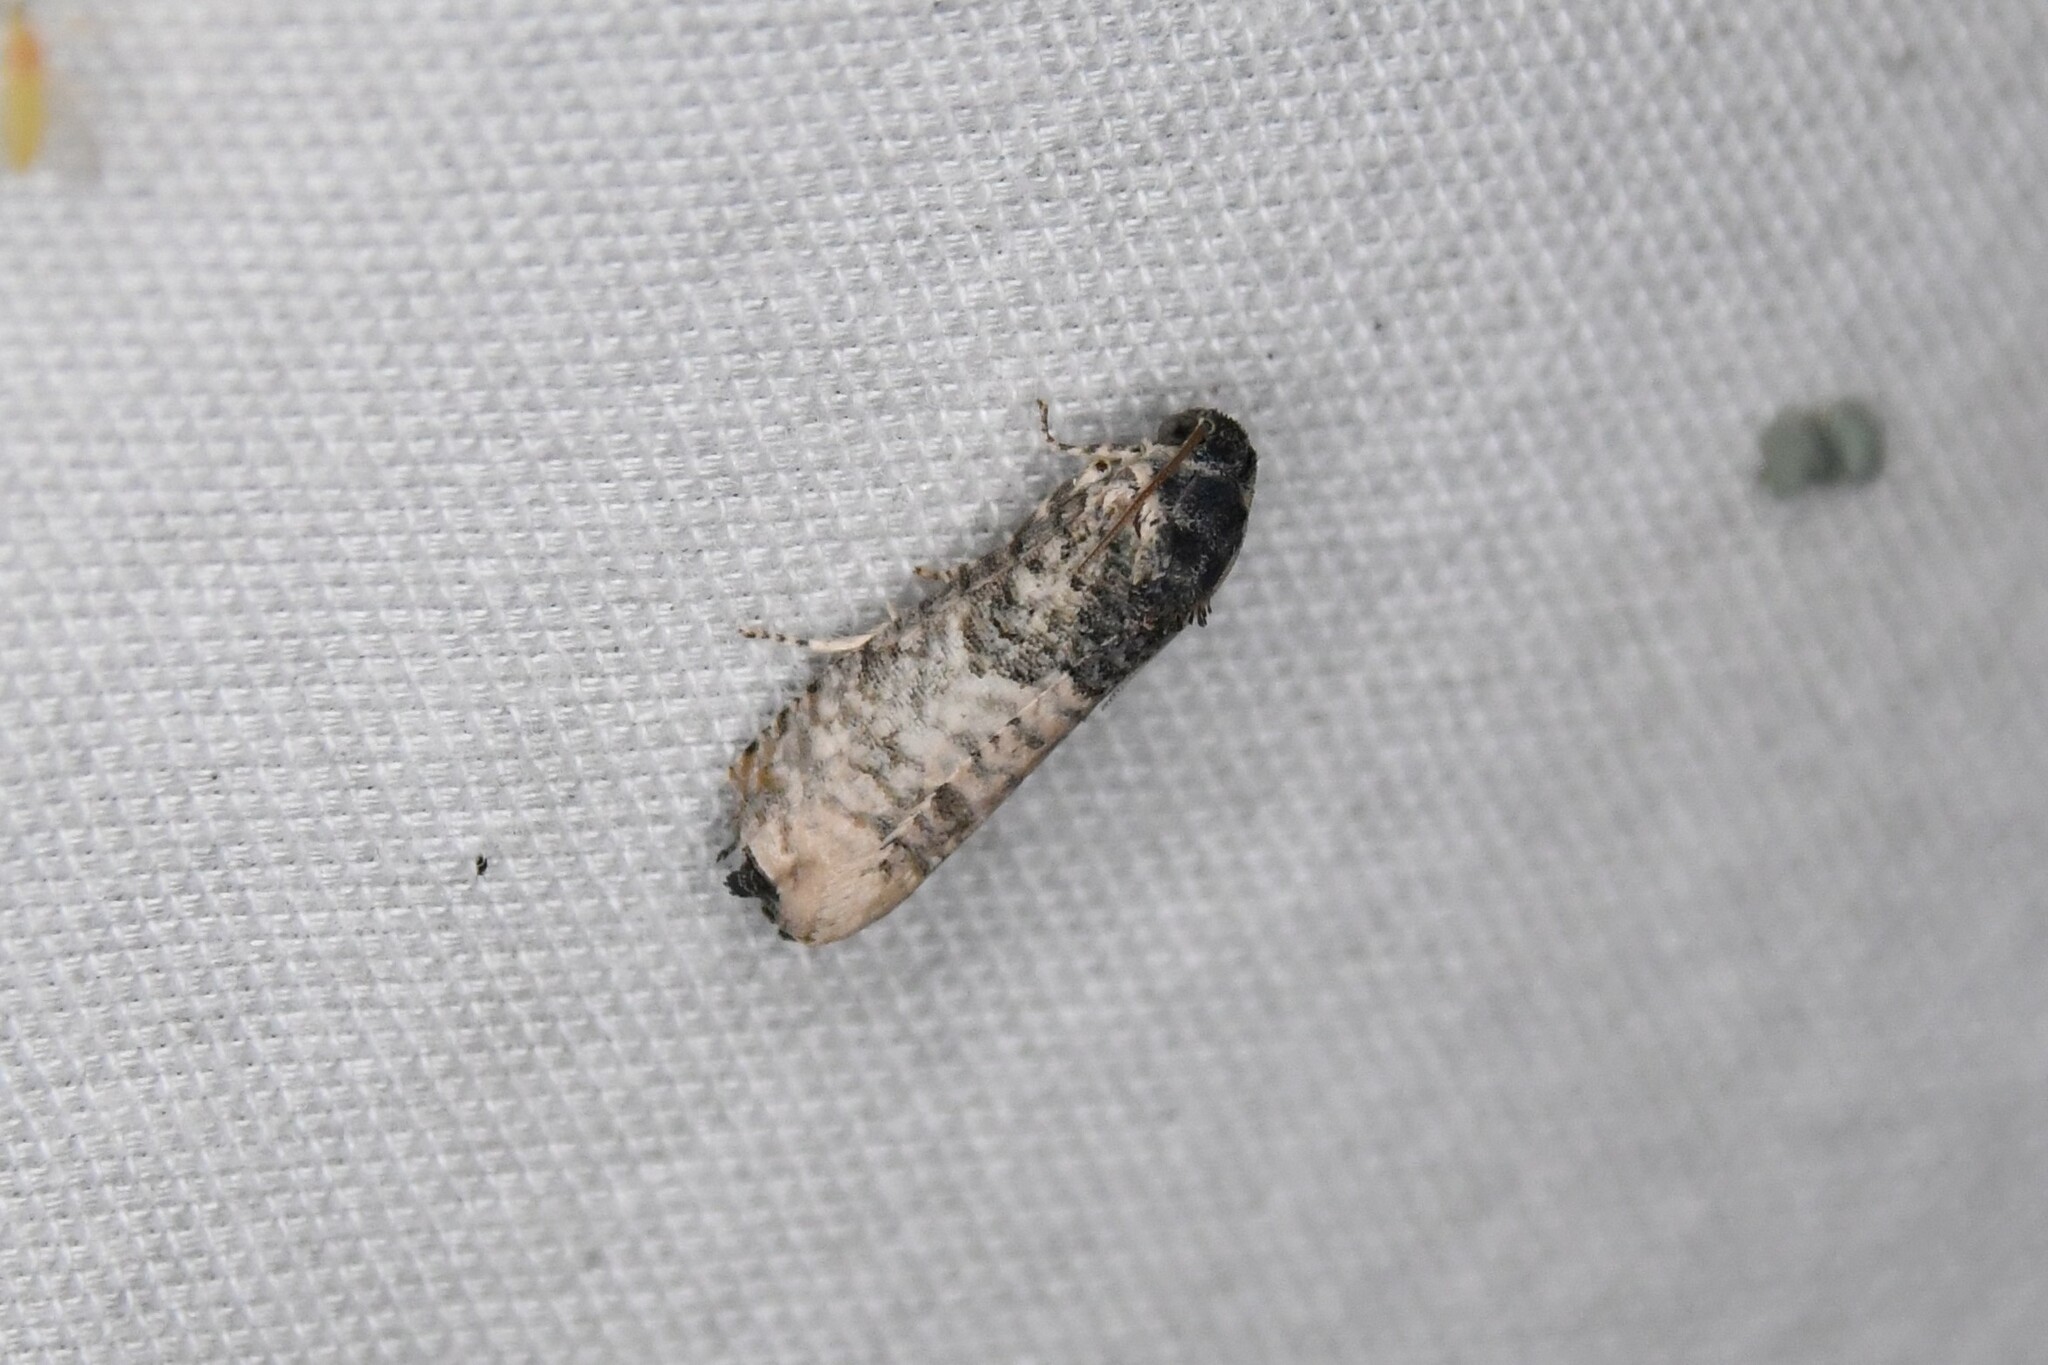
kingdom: Animalia
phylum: Arthropoda
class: Insecta
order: Lepidoptera
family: Tortricidae
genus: Epiblema
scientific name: Epiblema obfuscana
